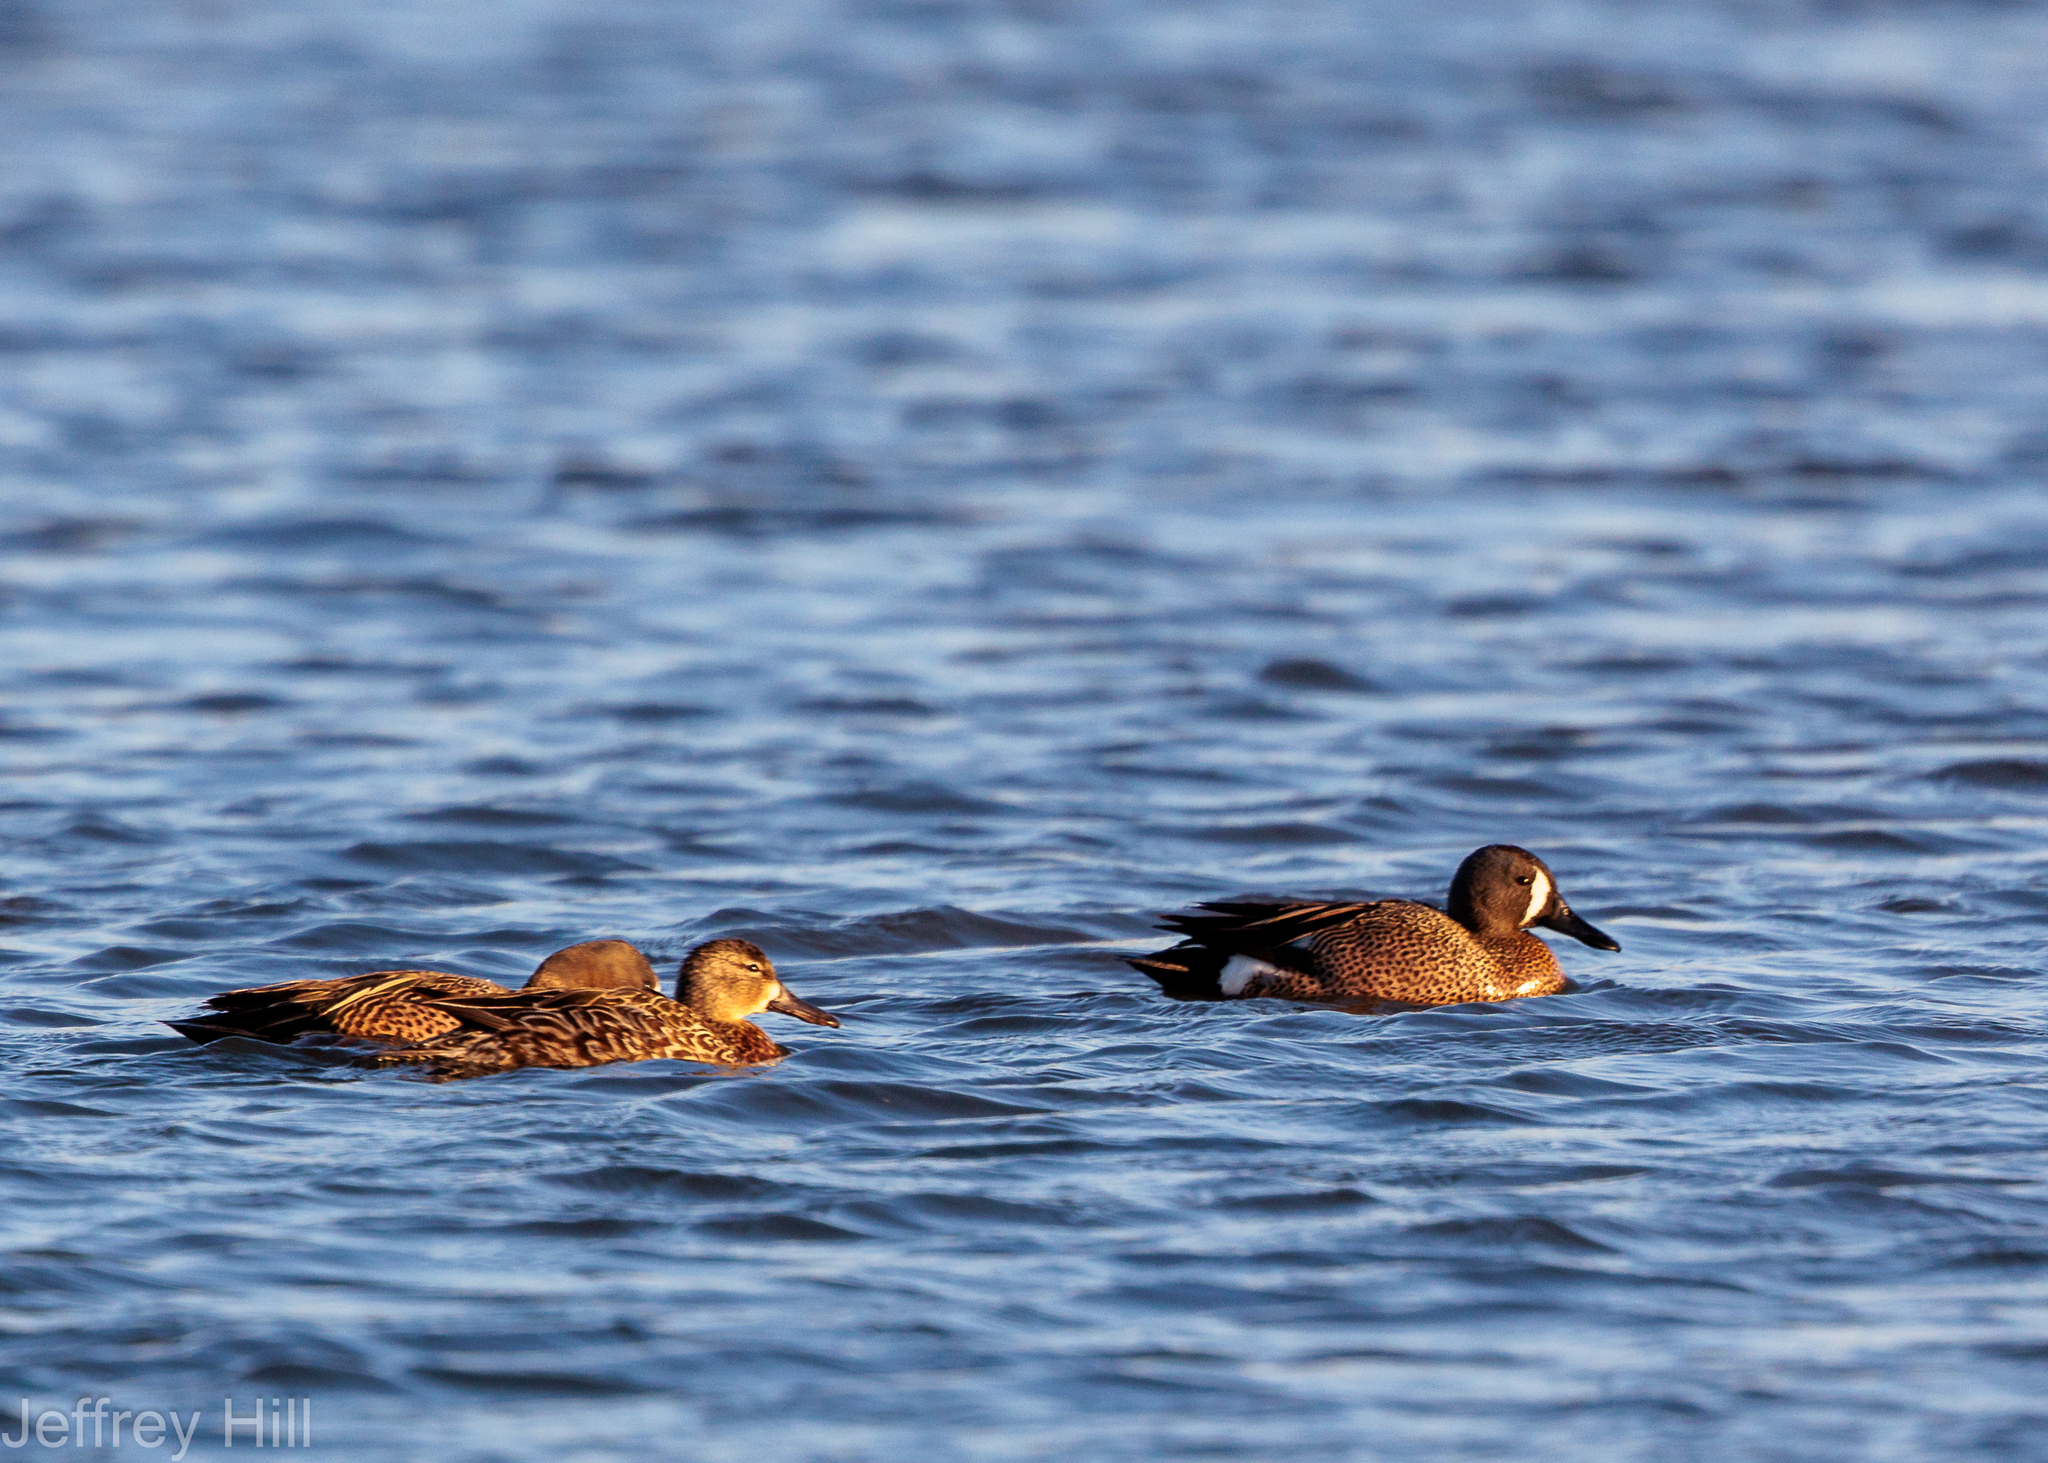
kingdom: Animalia
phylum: Chordata
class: Aves
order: Anseriformes
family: Anatidae
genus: Spatula
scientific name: Spatula discors
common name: Blue-winged teal
